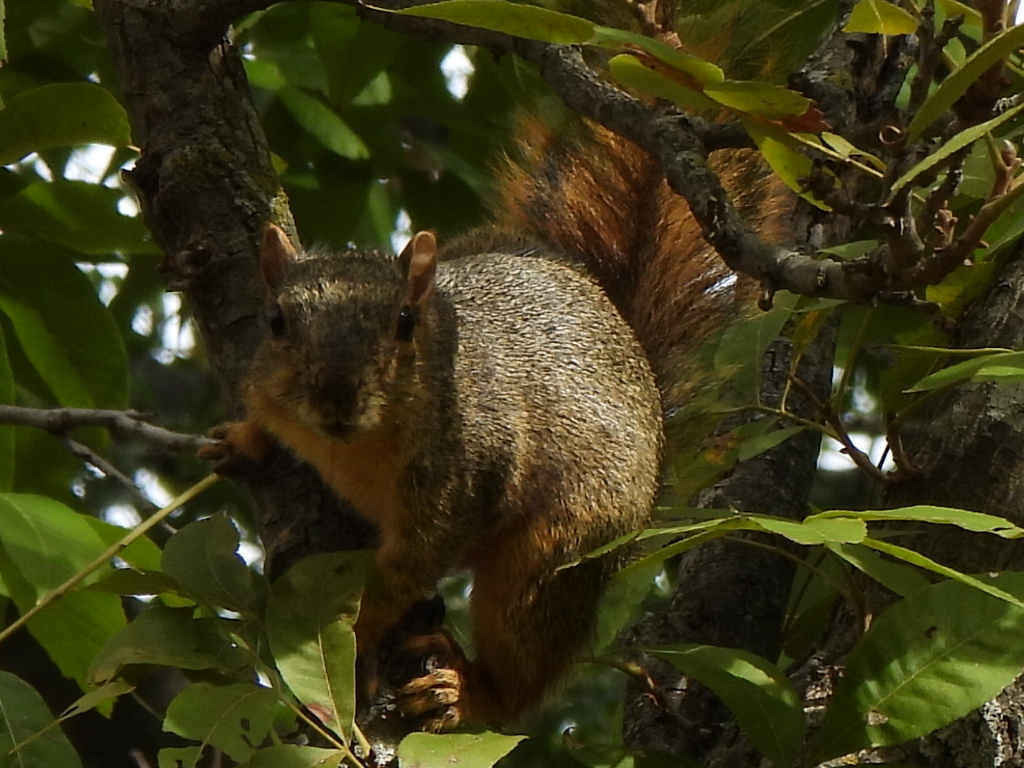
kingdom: Animalia
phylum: Chordata
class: Mammalia
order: Rodentia
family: Sciuridae
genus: Sciurus
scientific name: Sciurus niger
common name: Fox squirrel
